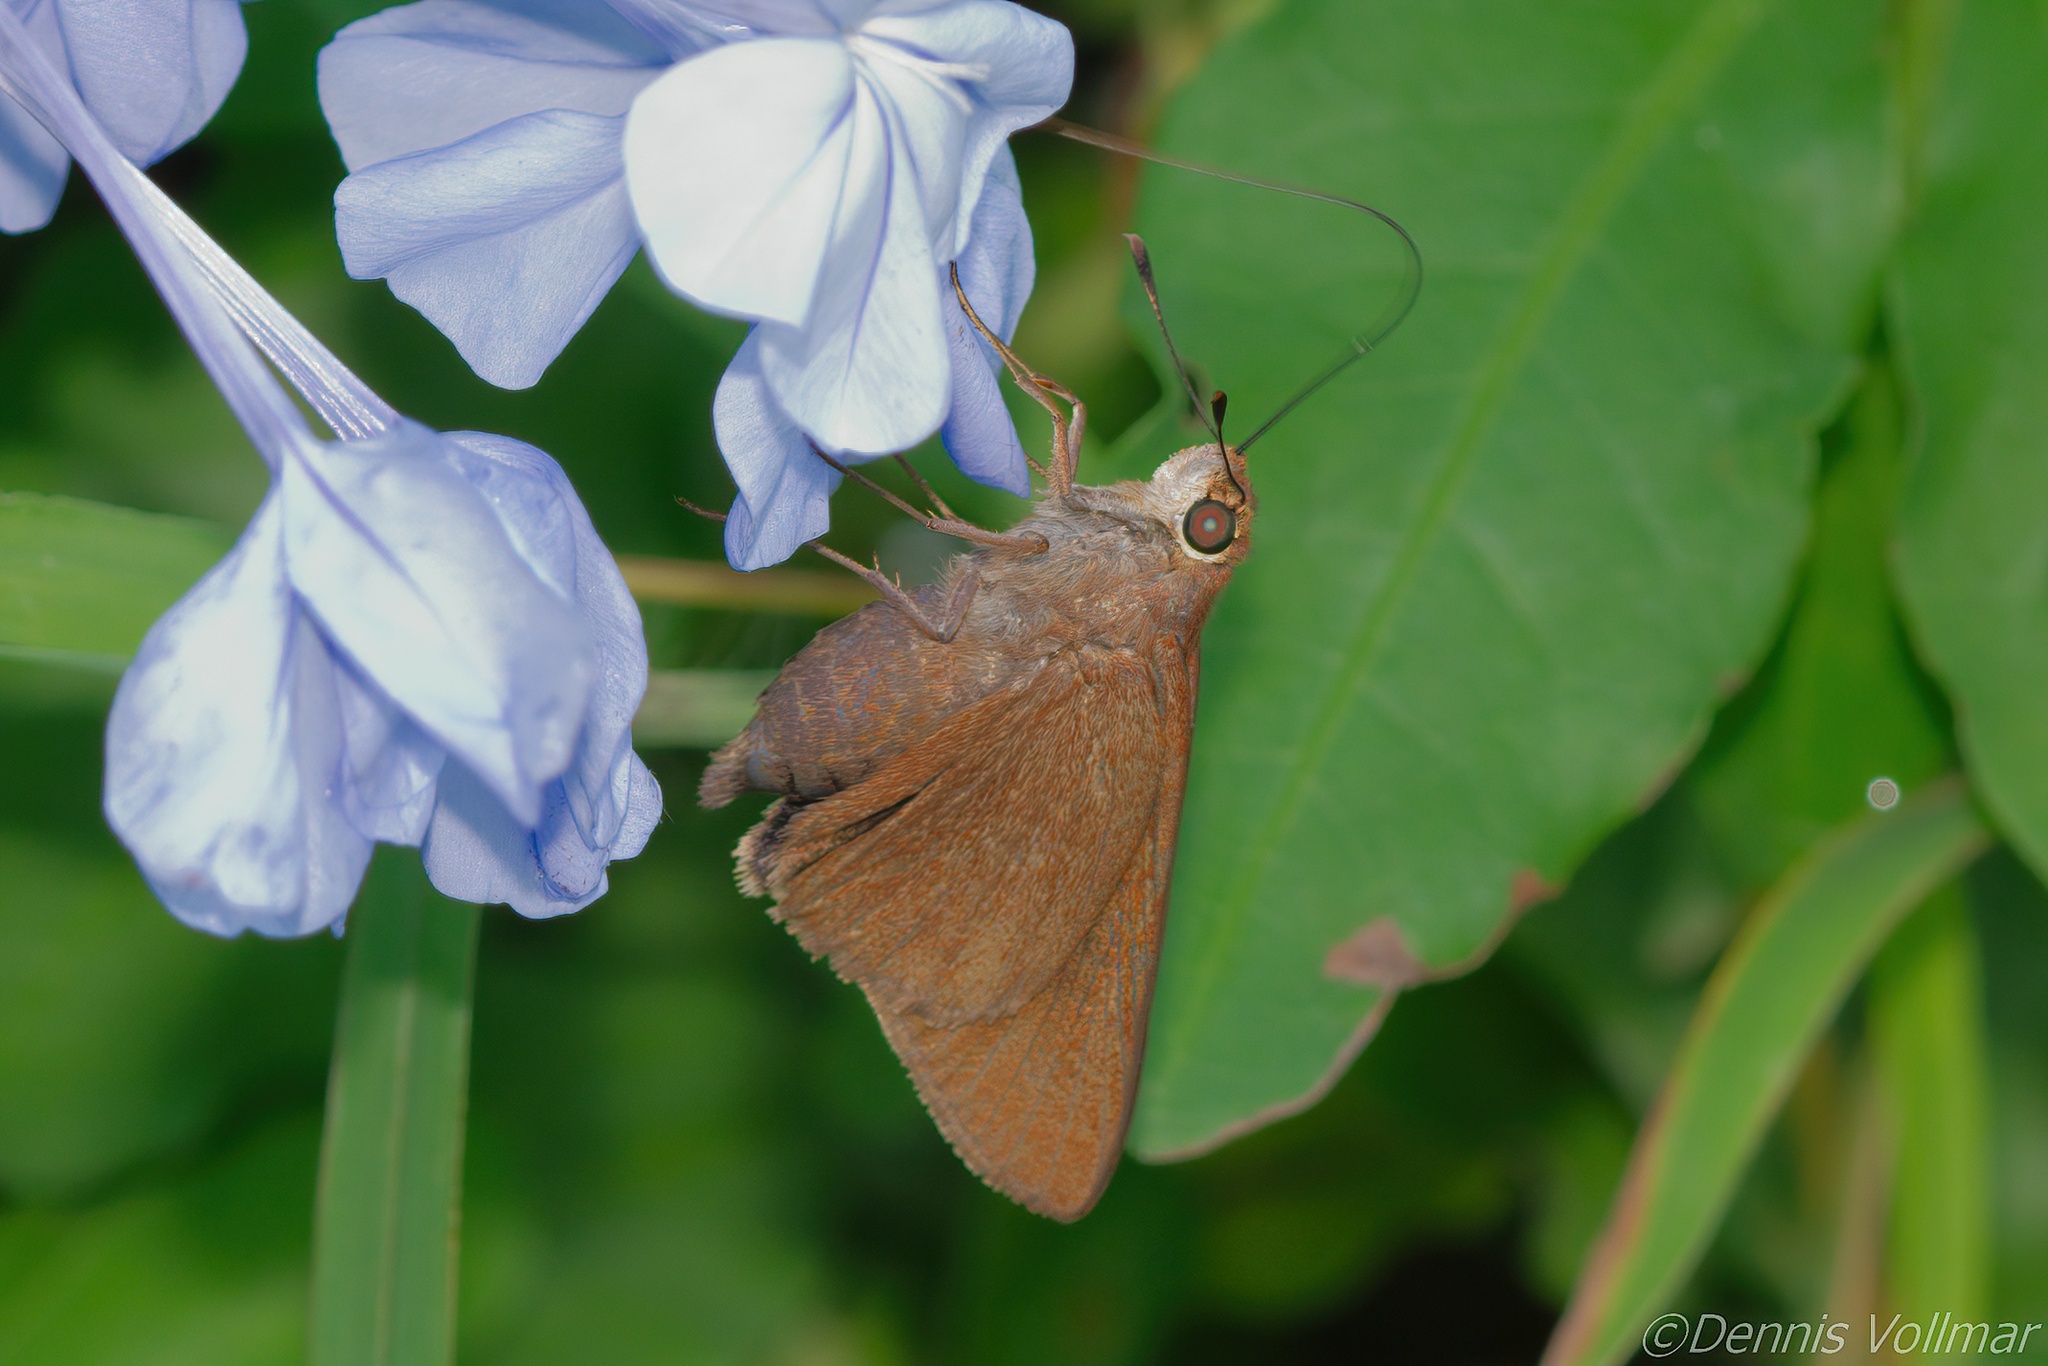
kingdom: Animalia
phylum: Arthropoda
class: Insecta
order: Lepidoptera
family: Hesperiidae
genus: Asbolis
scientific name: Asbolis capucinus
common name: Monk skipper
